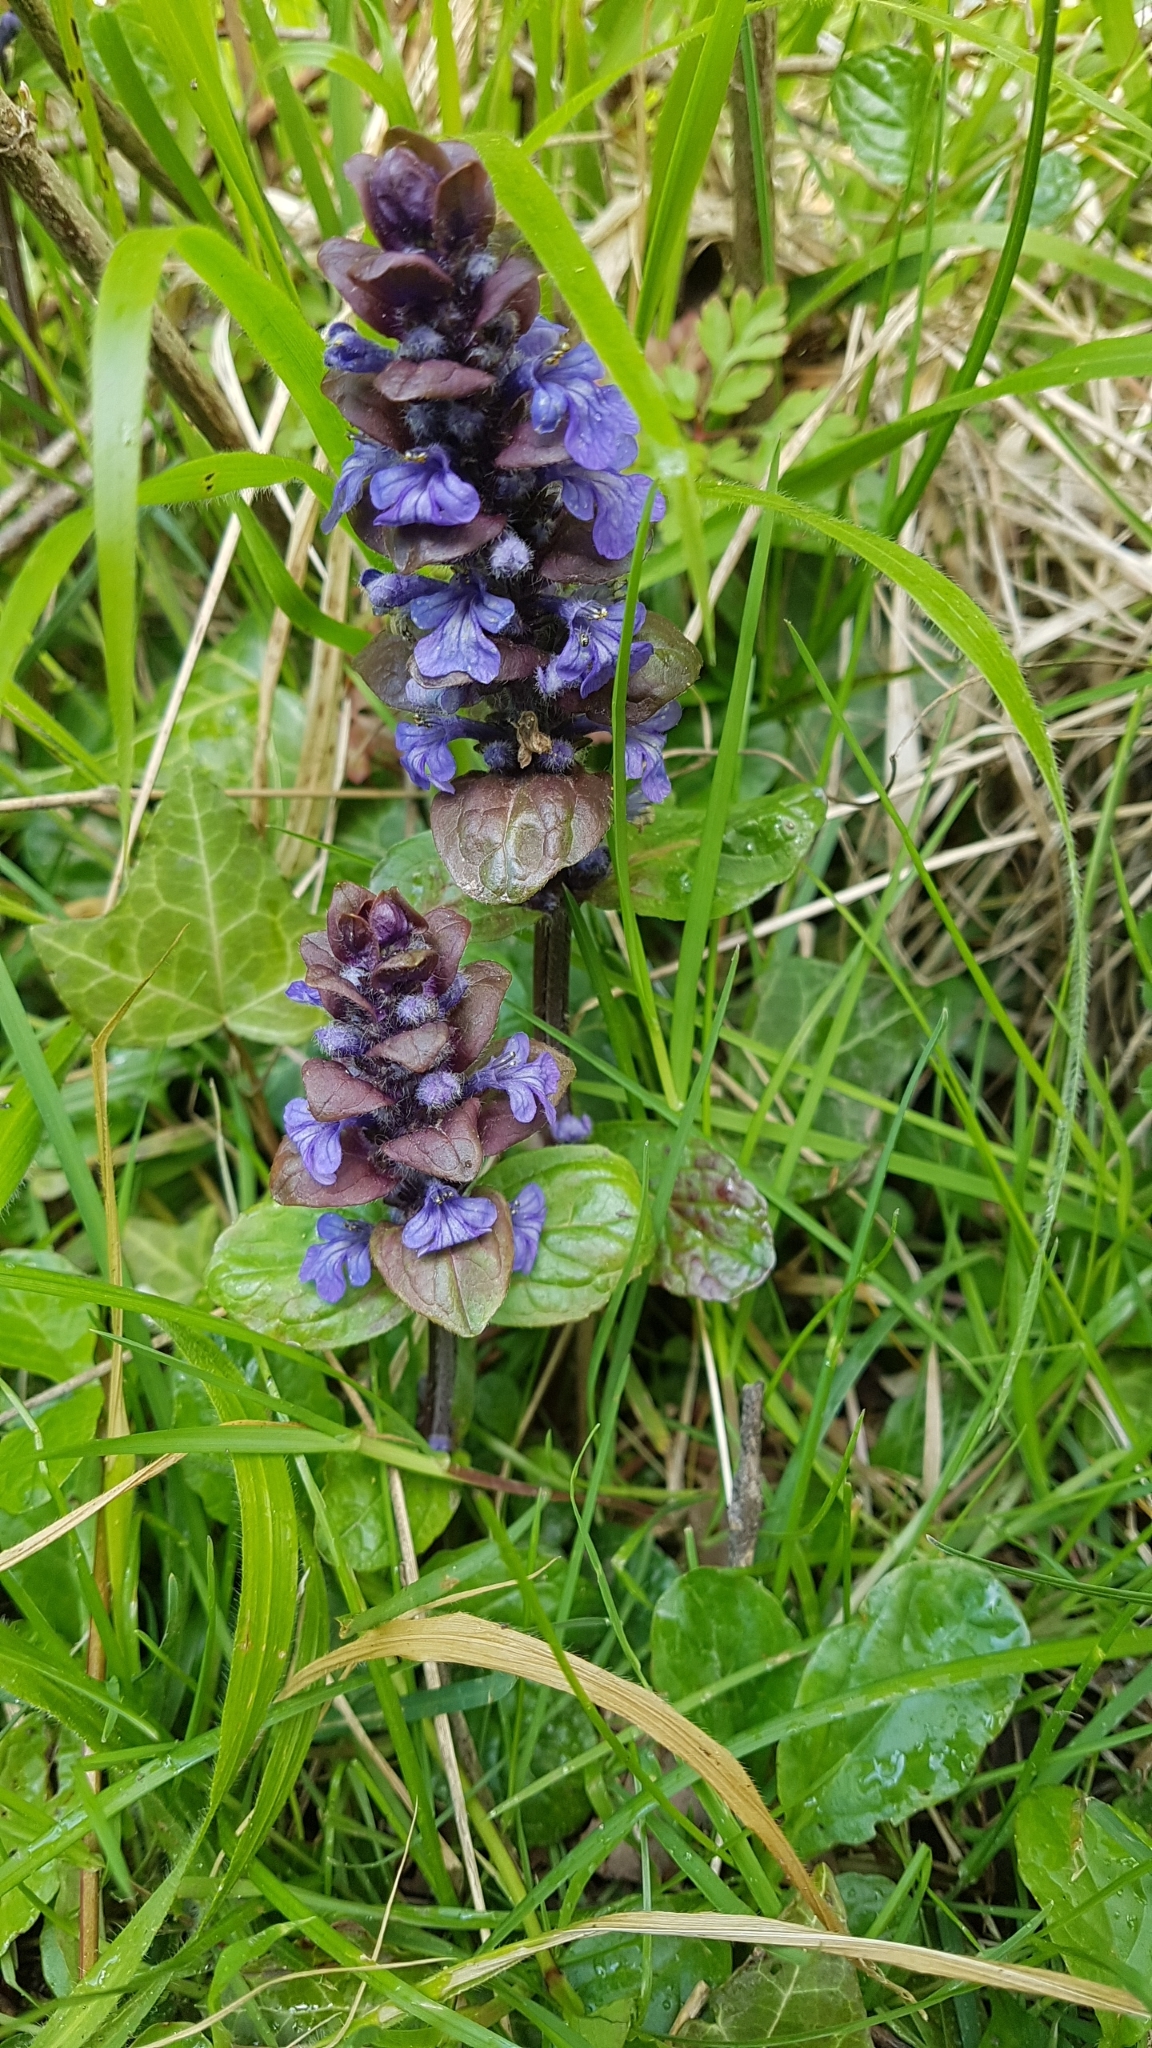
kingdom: Plantae
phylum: Tracheophyta
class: Magnoliopsida
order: Lamiales
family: Lamiaceae
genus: Ajuga
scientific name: Ajuga reptans
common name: Bugle
